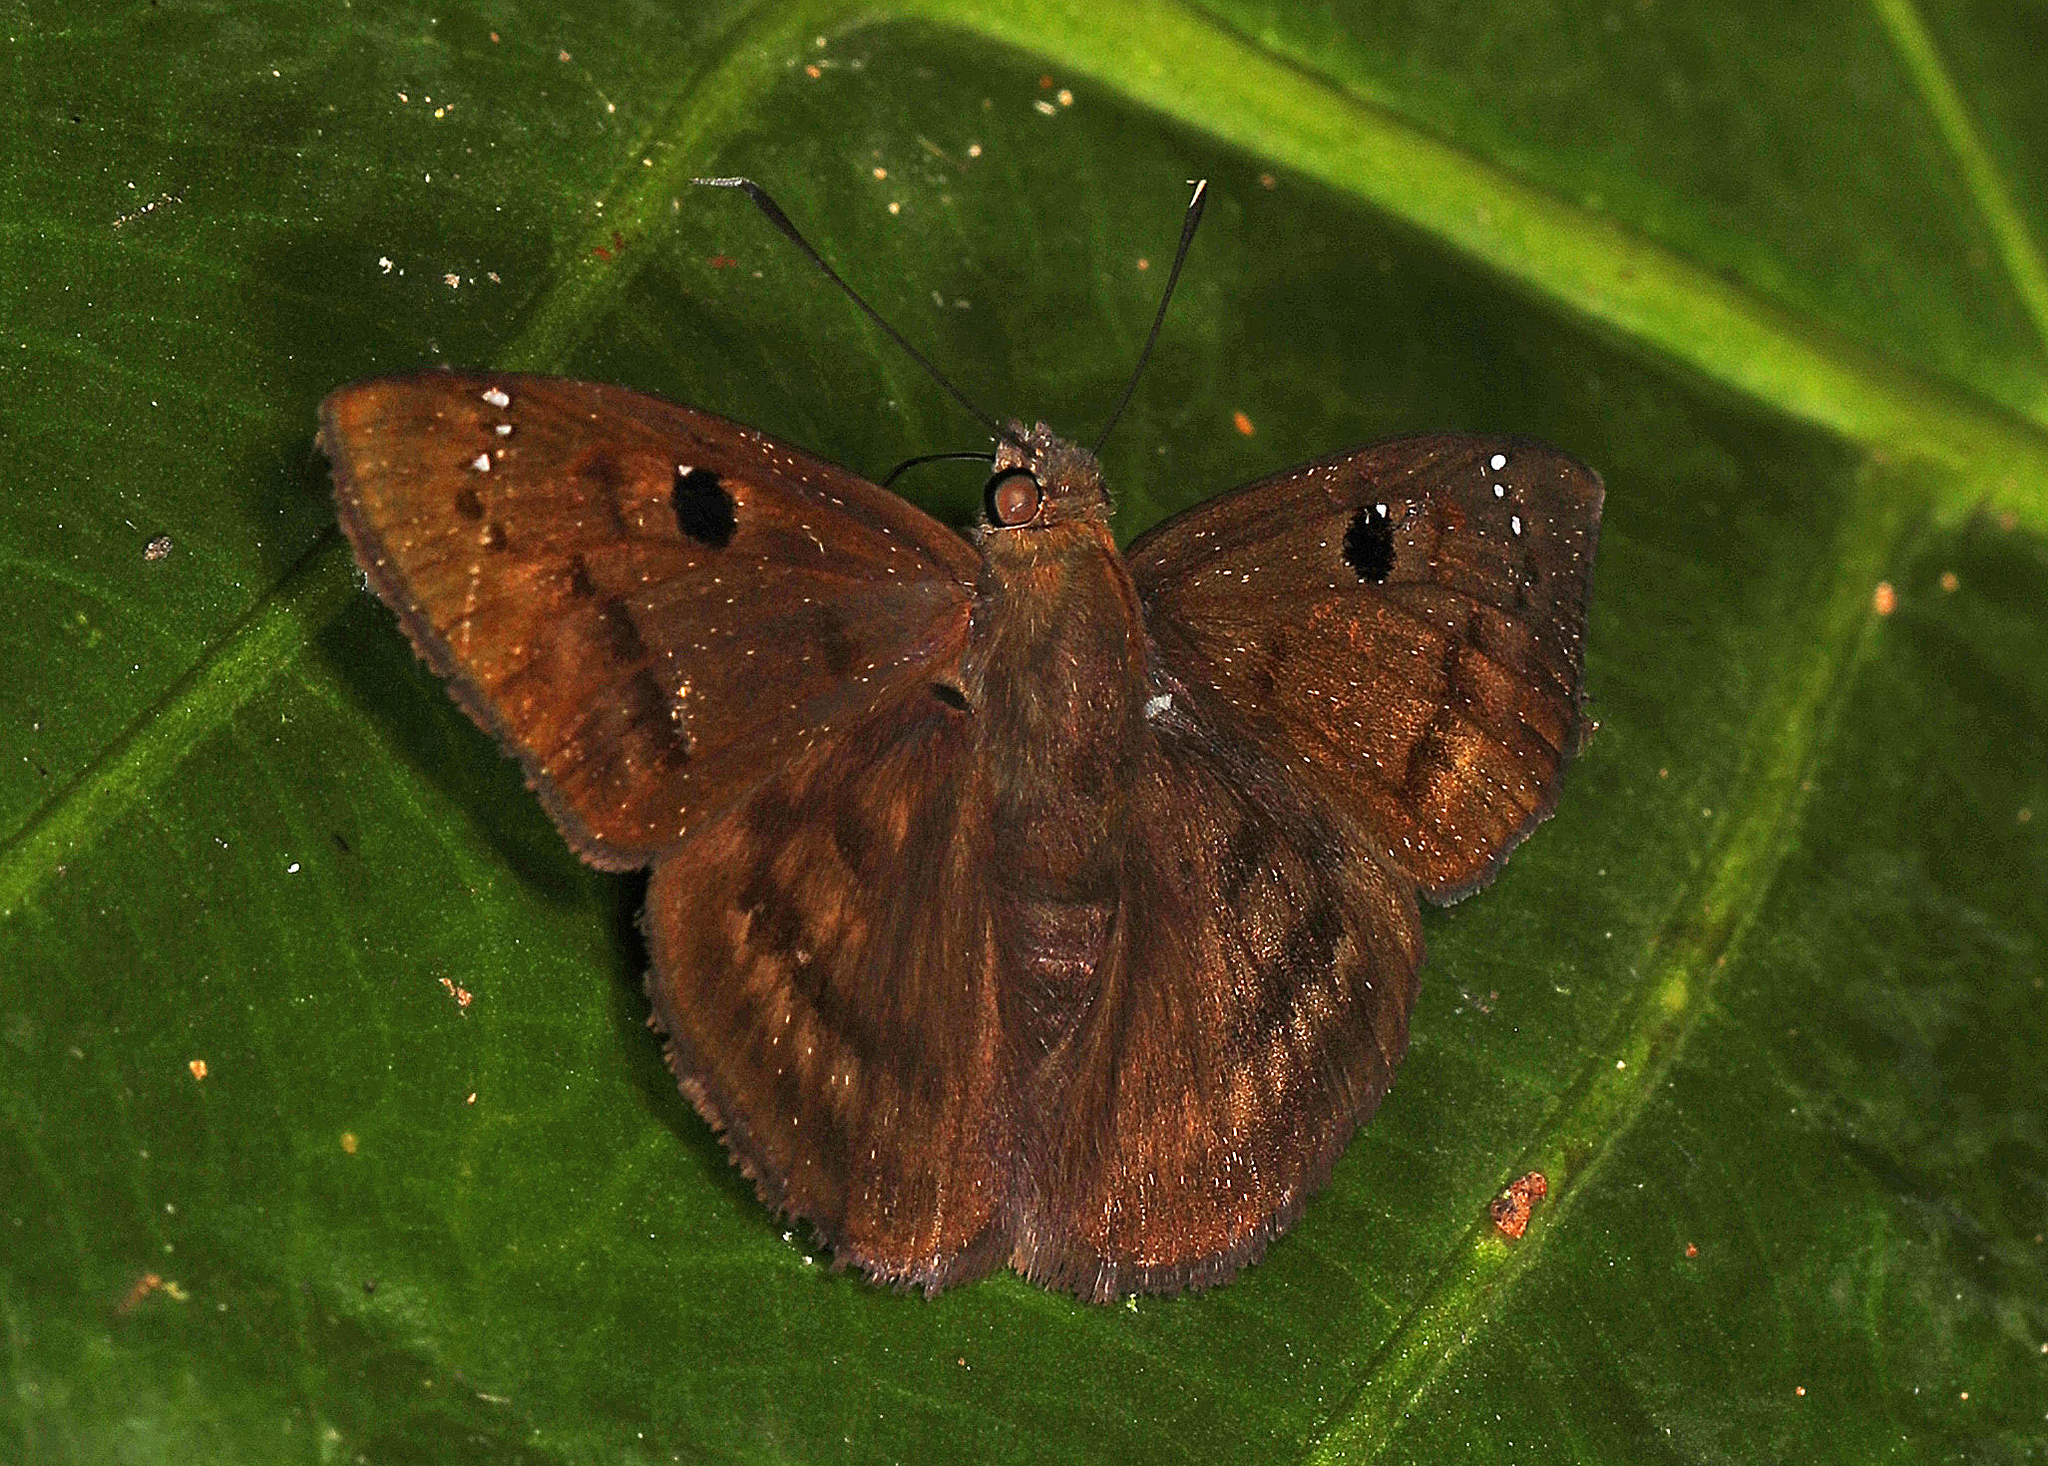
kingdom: Animalia
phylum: Arthropoda
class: Insecta
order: Lepidoptera
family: Hesperiidae
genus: Mimia
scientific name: Mimia phidyle
